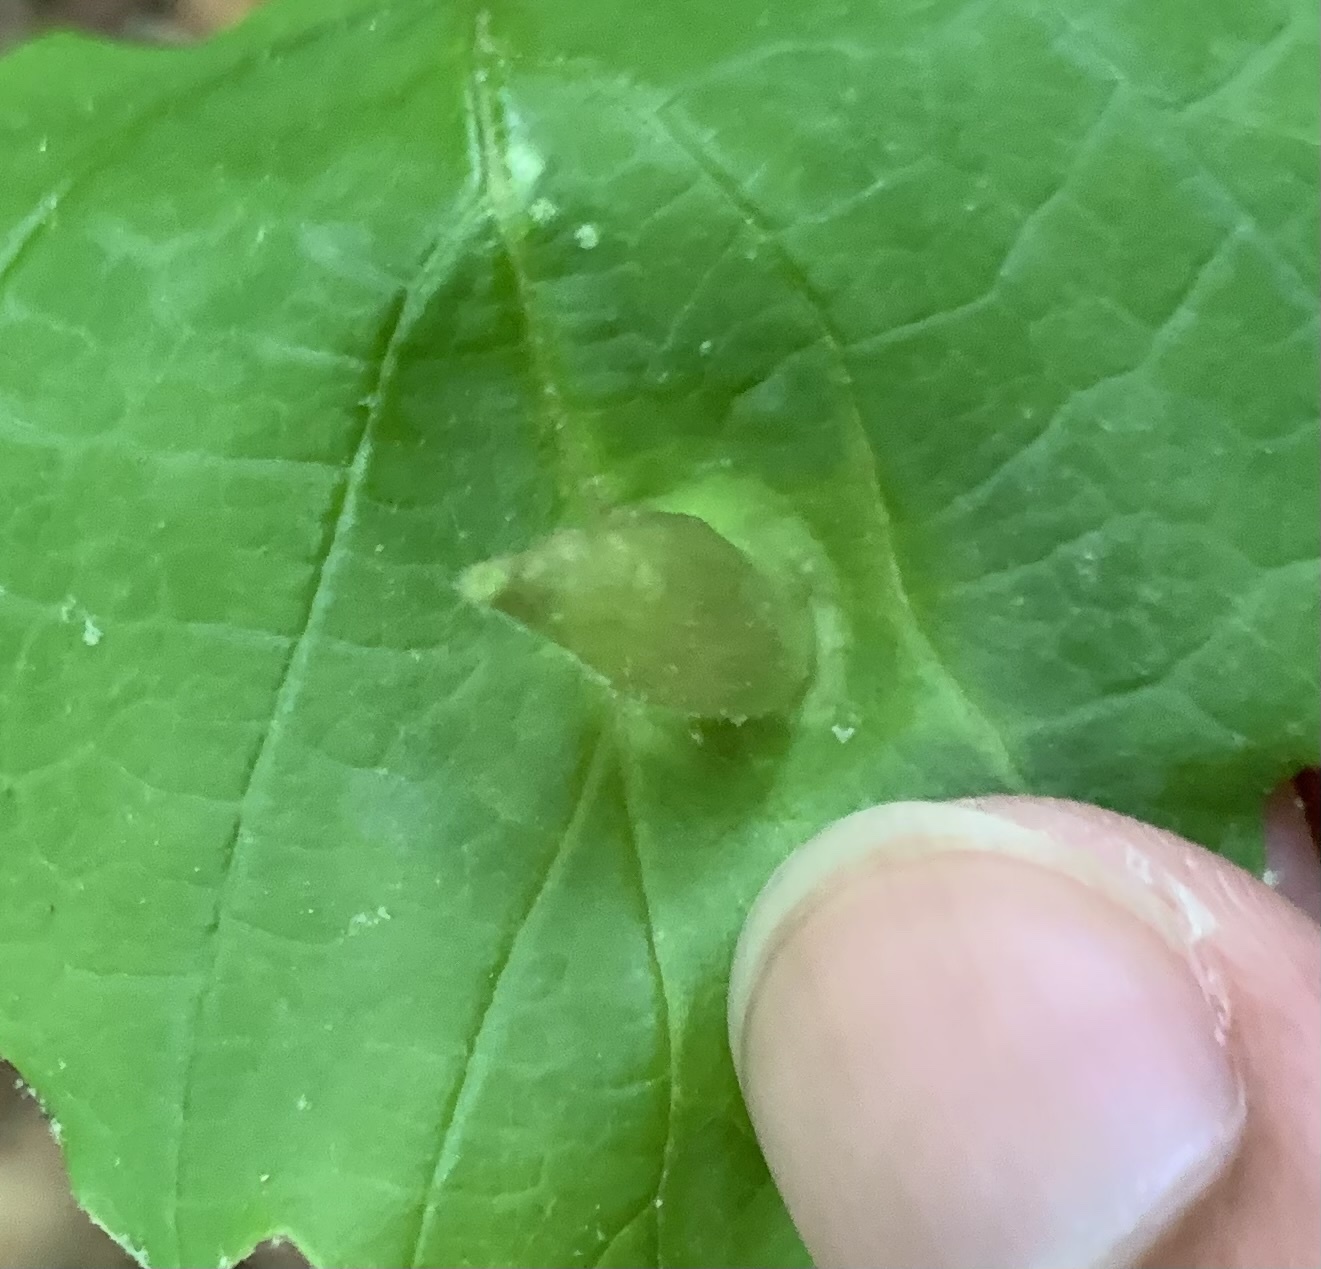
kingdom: Animalia
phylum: Arthropoda
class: Insecta
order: Hemiptera
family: Aphididae
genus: Hormaphis
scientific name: Hormaphis hamamelidis
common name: Witch-hazel cone gall aphid
